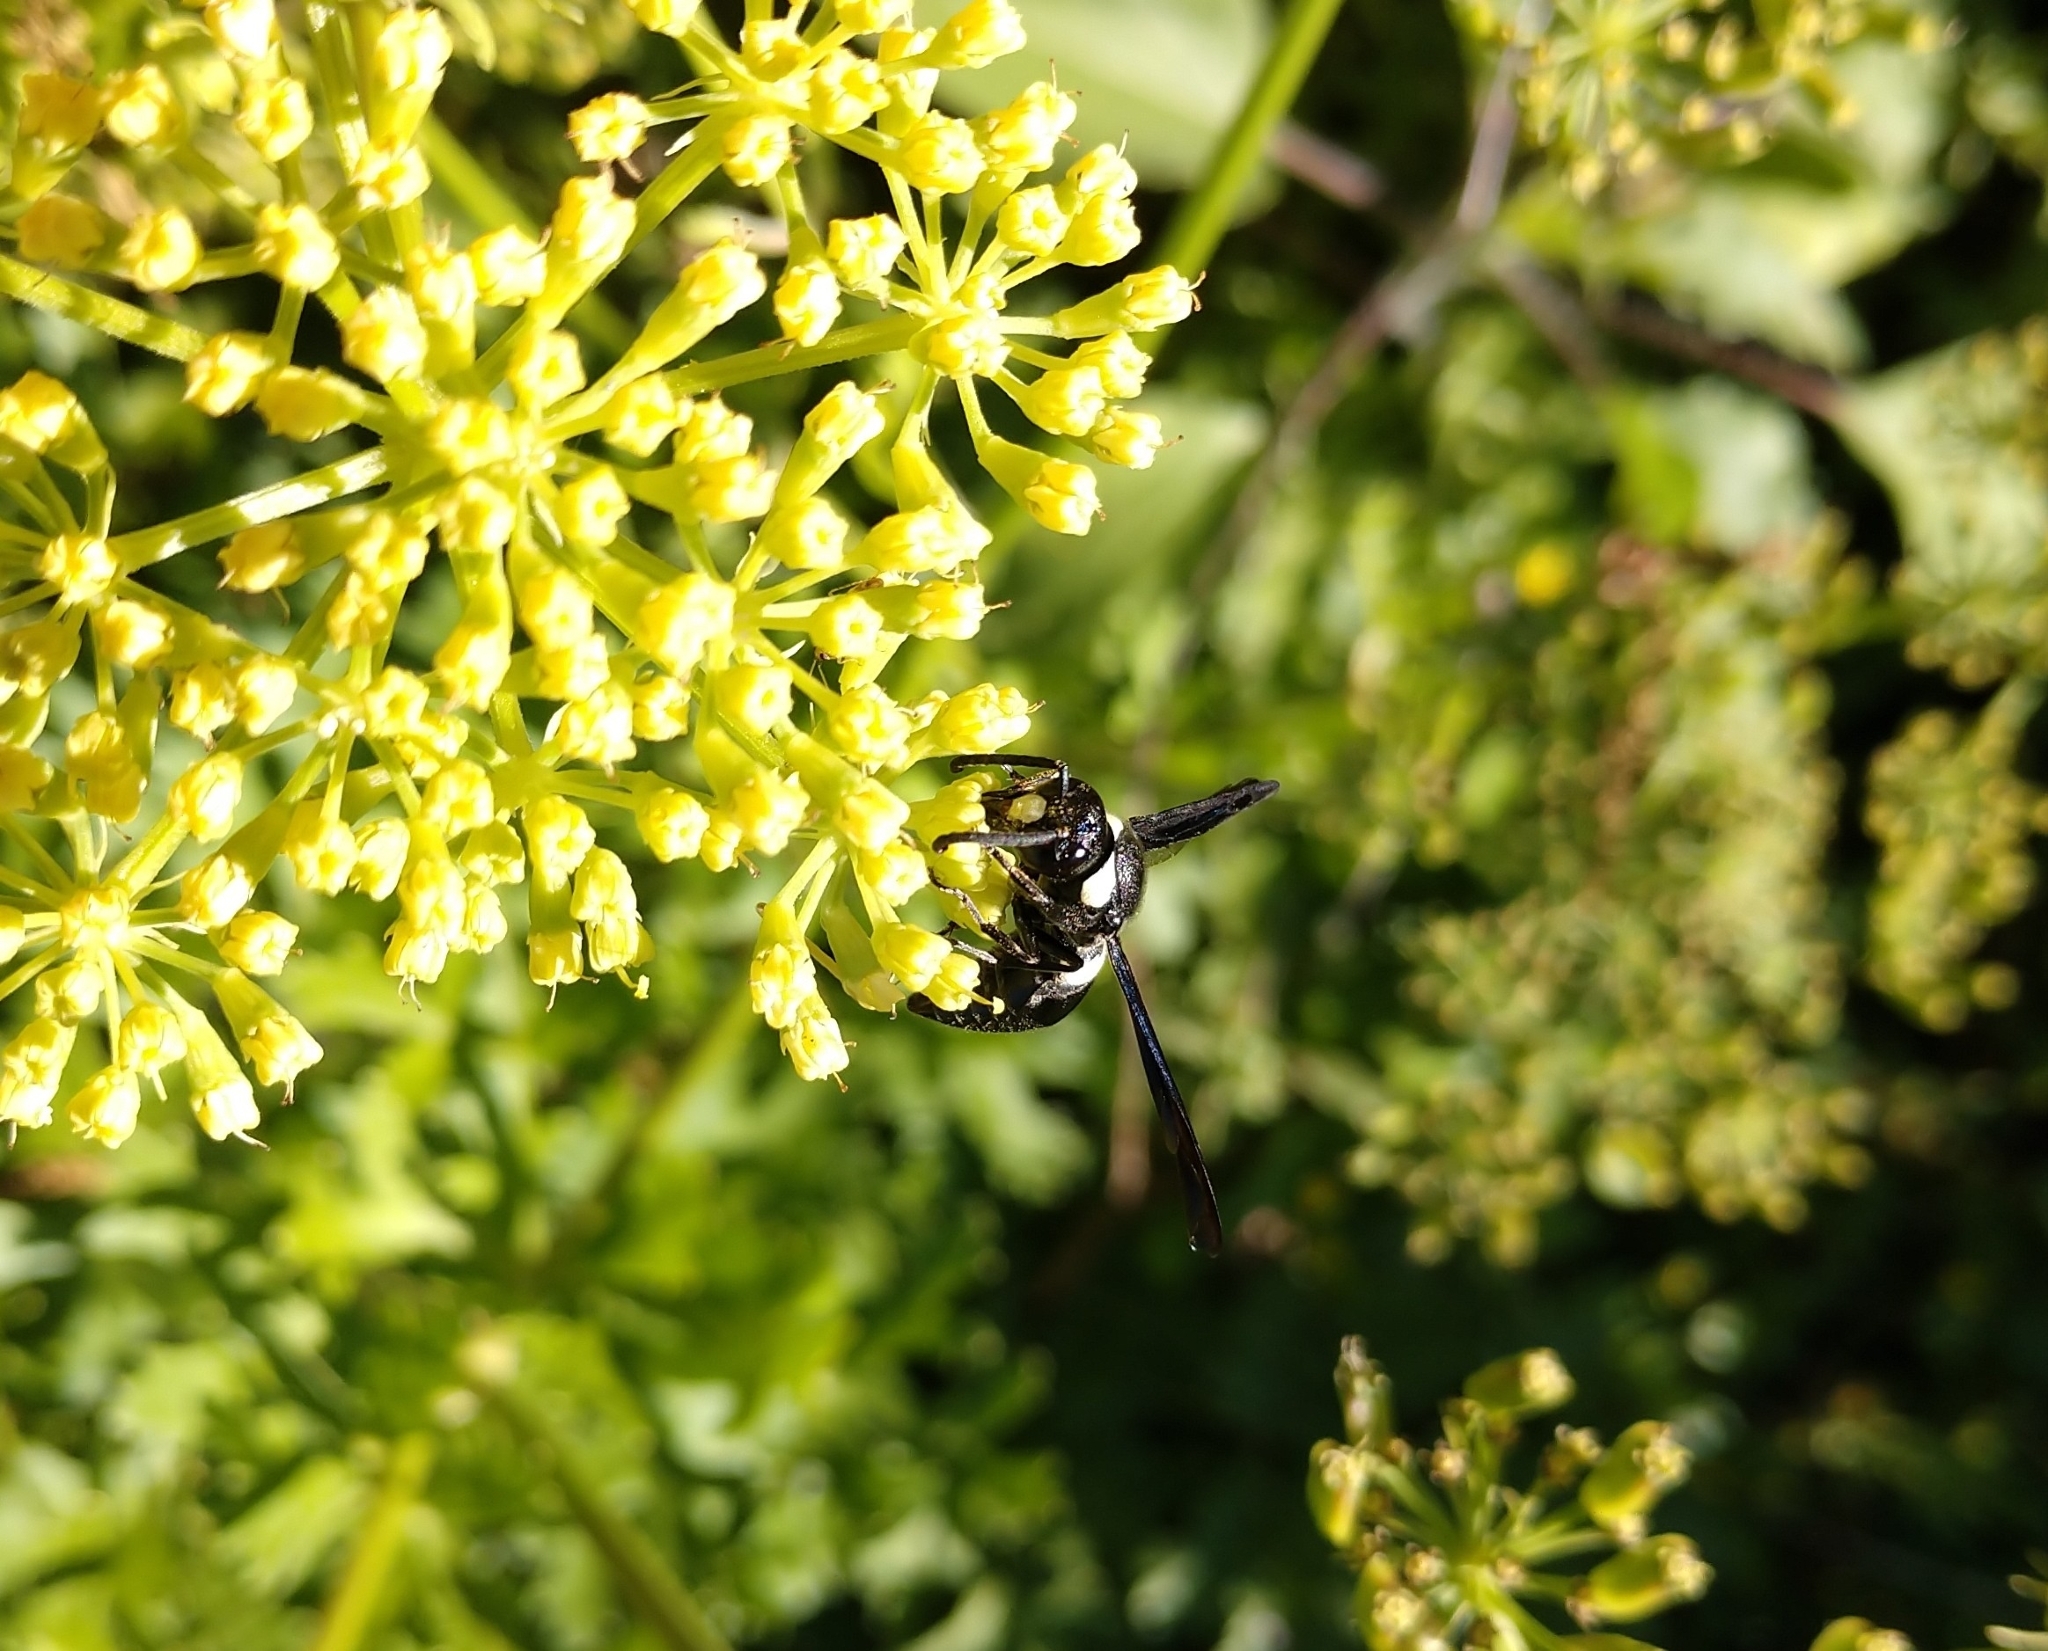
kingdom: Animalia
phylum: Arthropoda
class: Insecta
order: Hymenoptera
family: Eumenidae
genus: Monobia
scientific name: Monobia quadridens
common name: Four-toothed mason wasp
